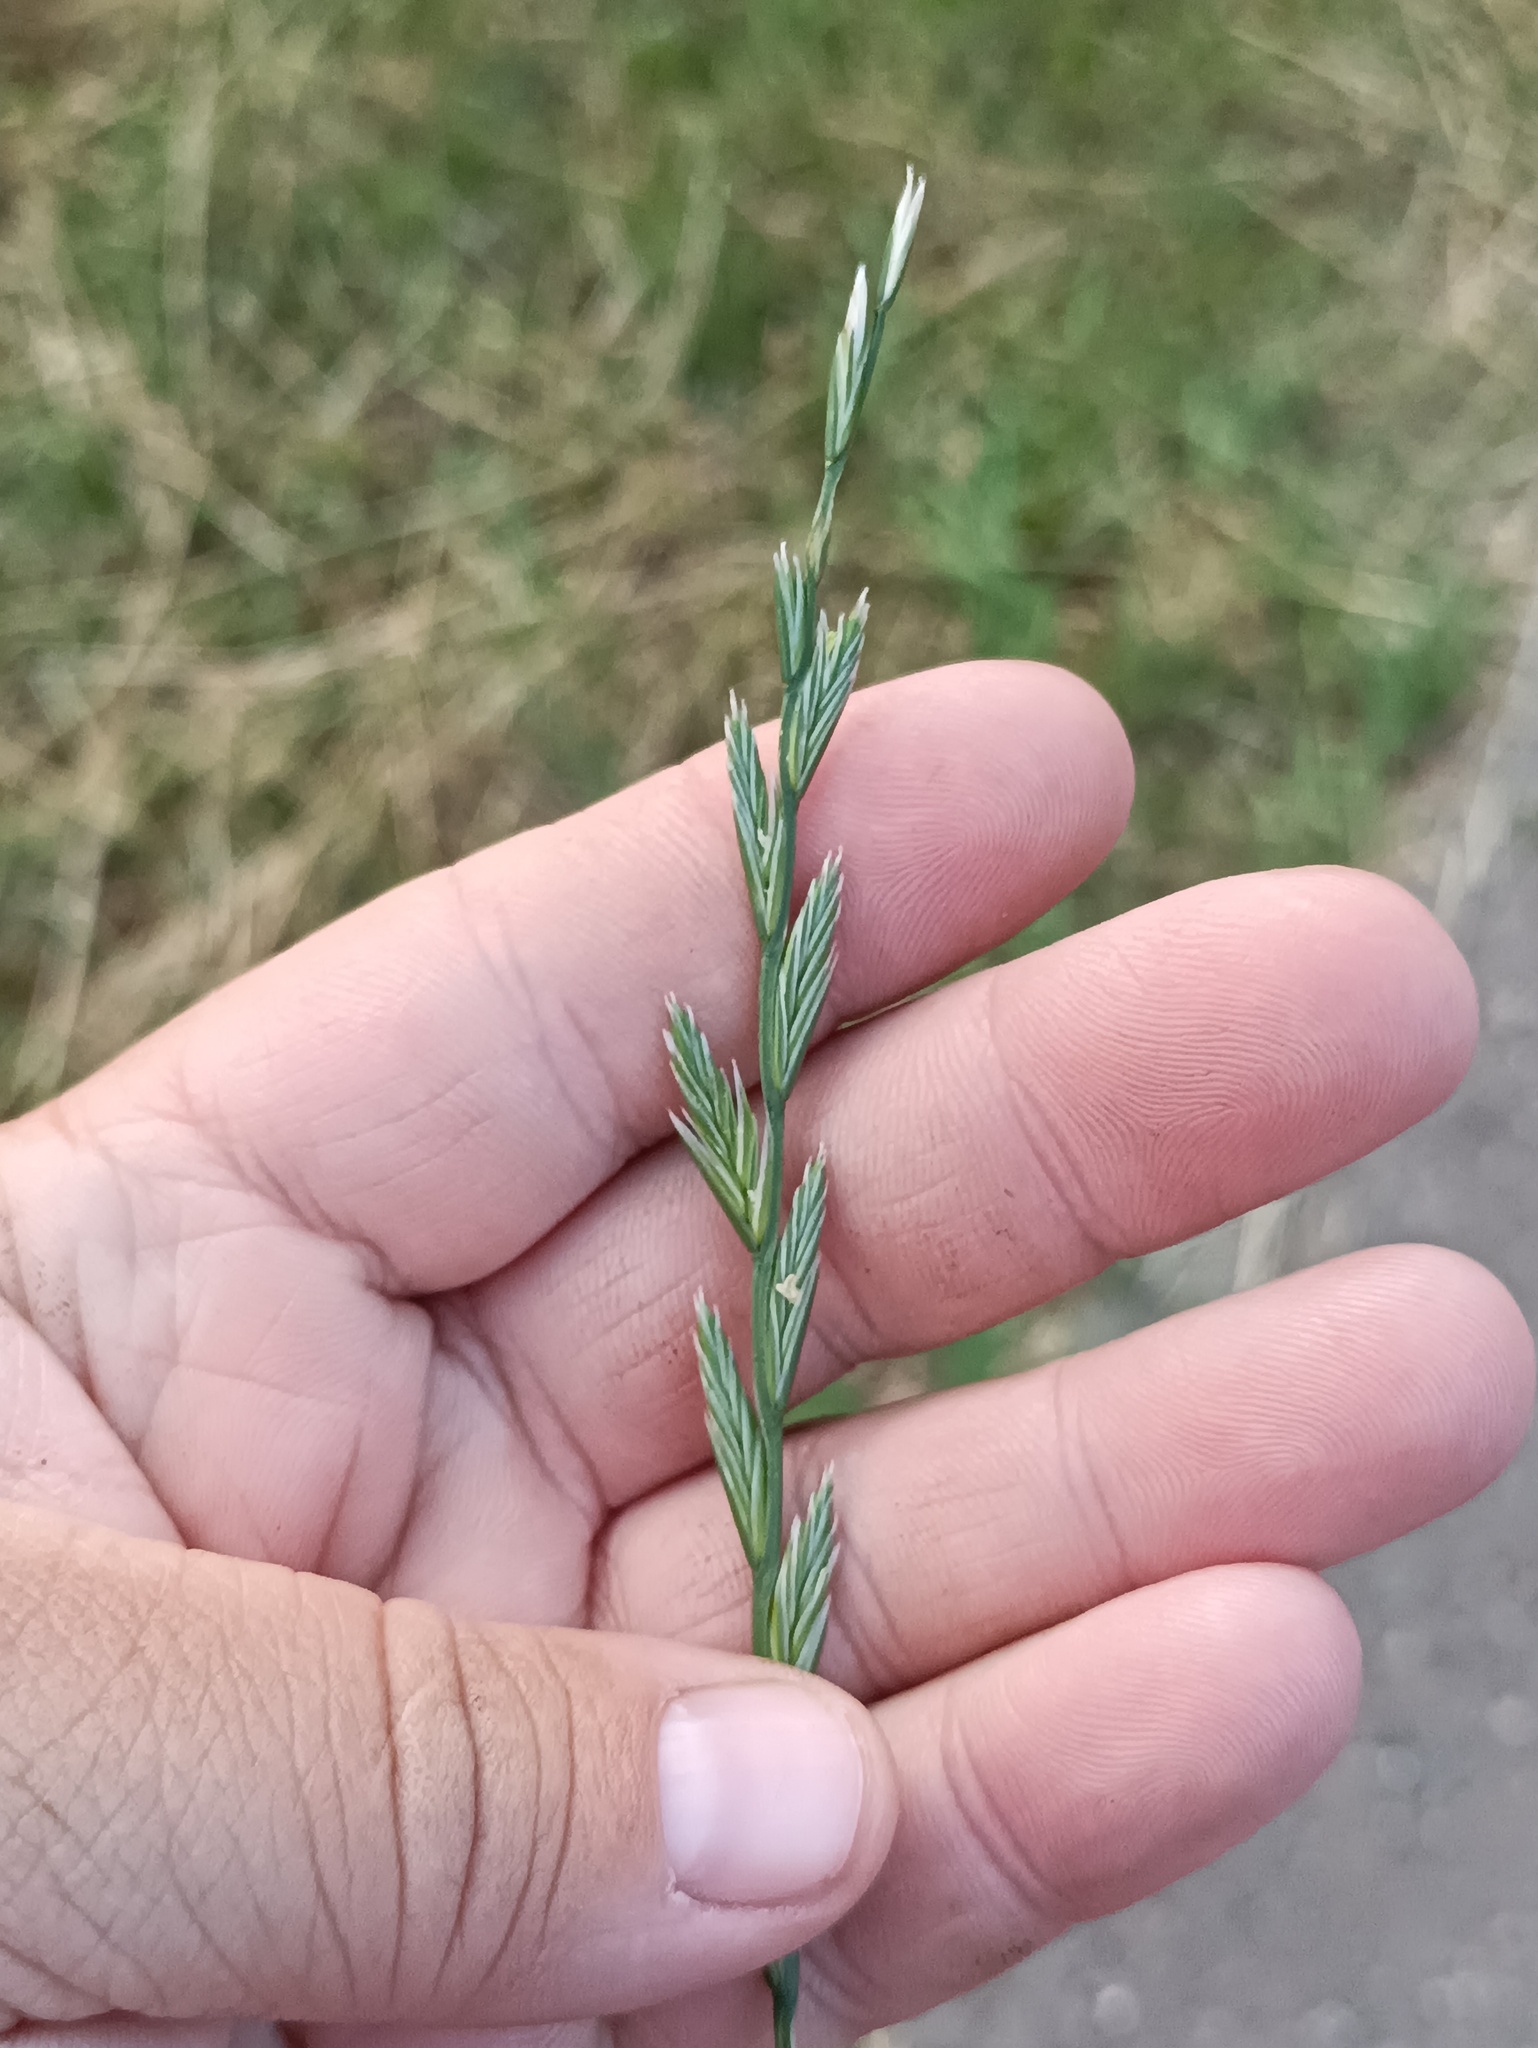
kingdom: Plantae
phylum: Tracheophyta
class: Liliopsida
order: Poales
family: Poaceae
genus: Lolium
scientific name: Lolium perenne
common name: Perennial ryegrass
